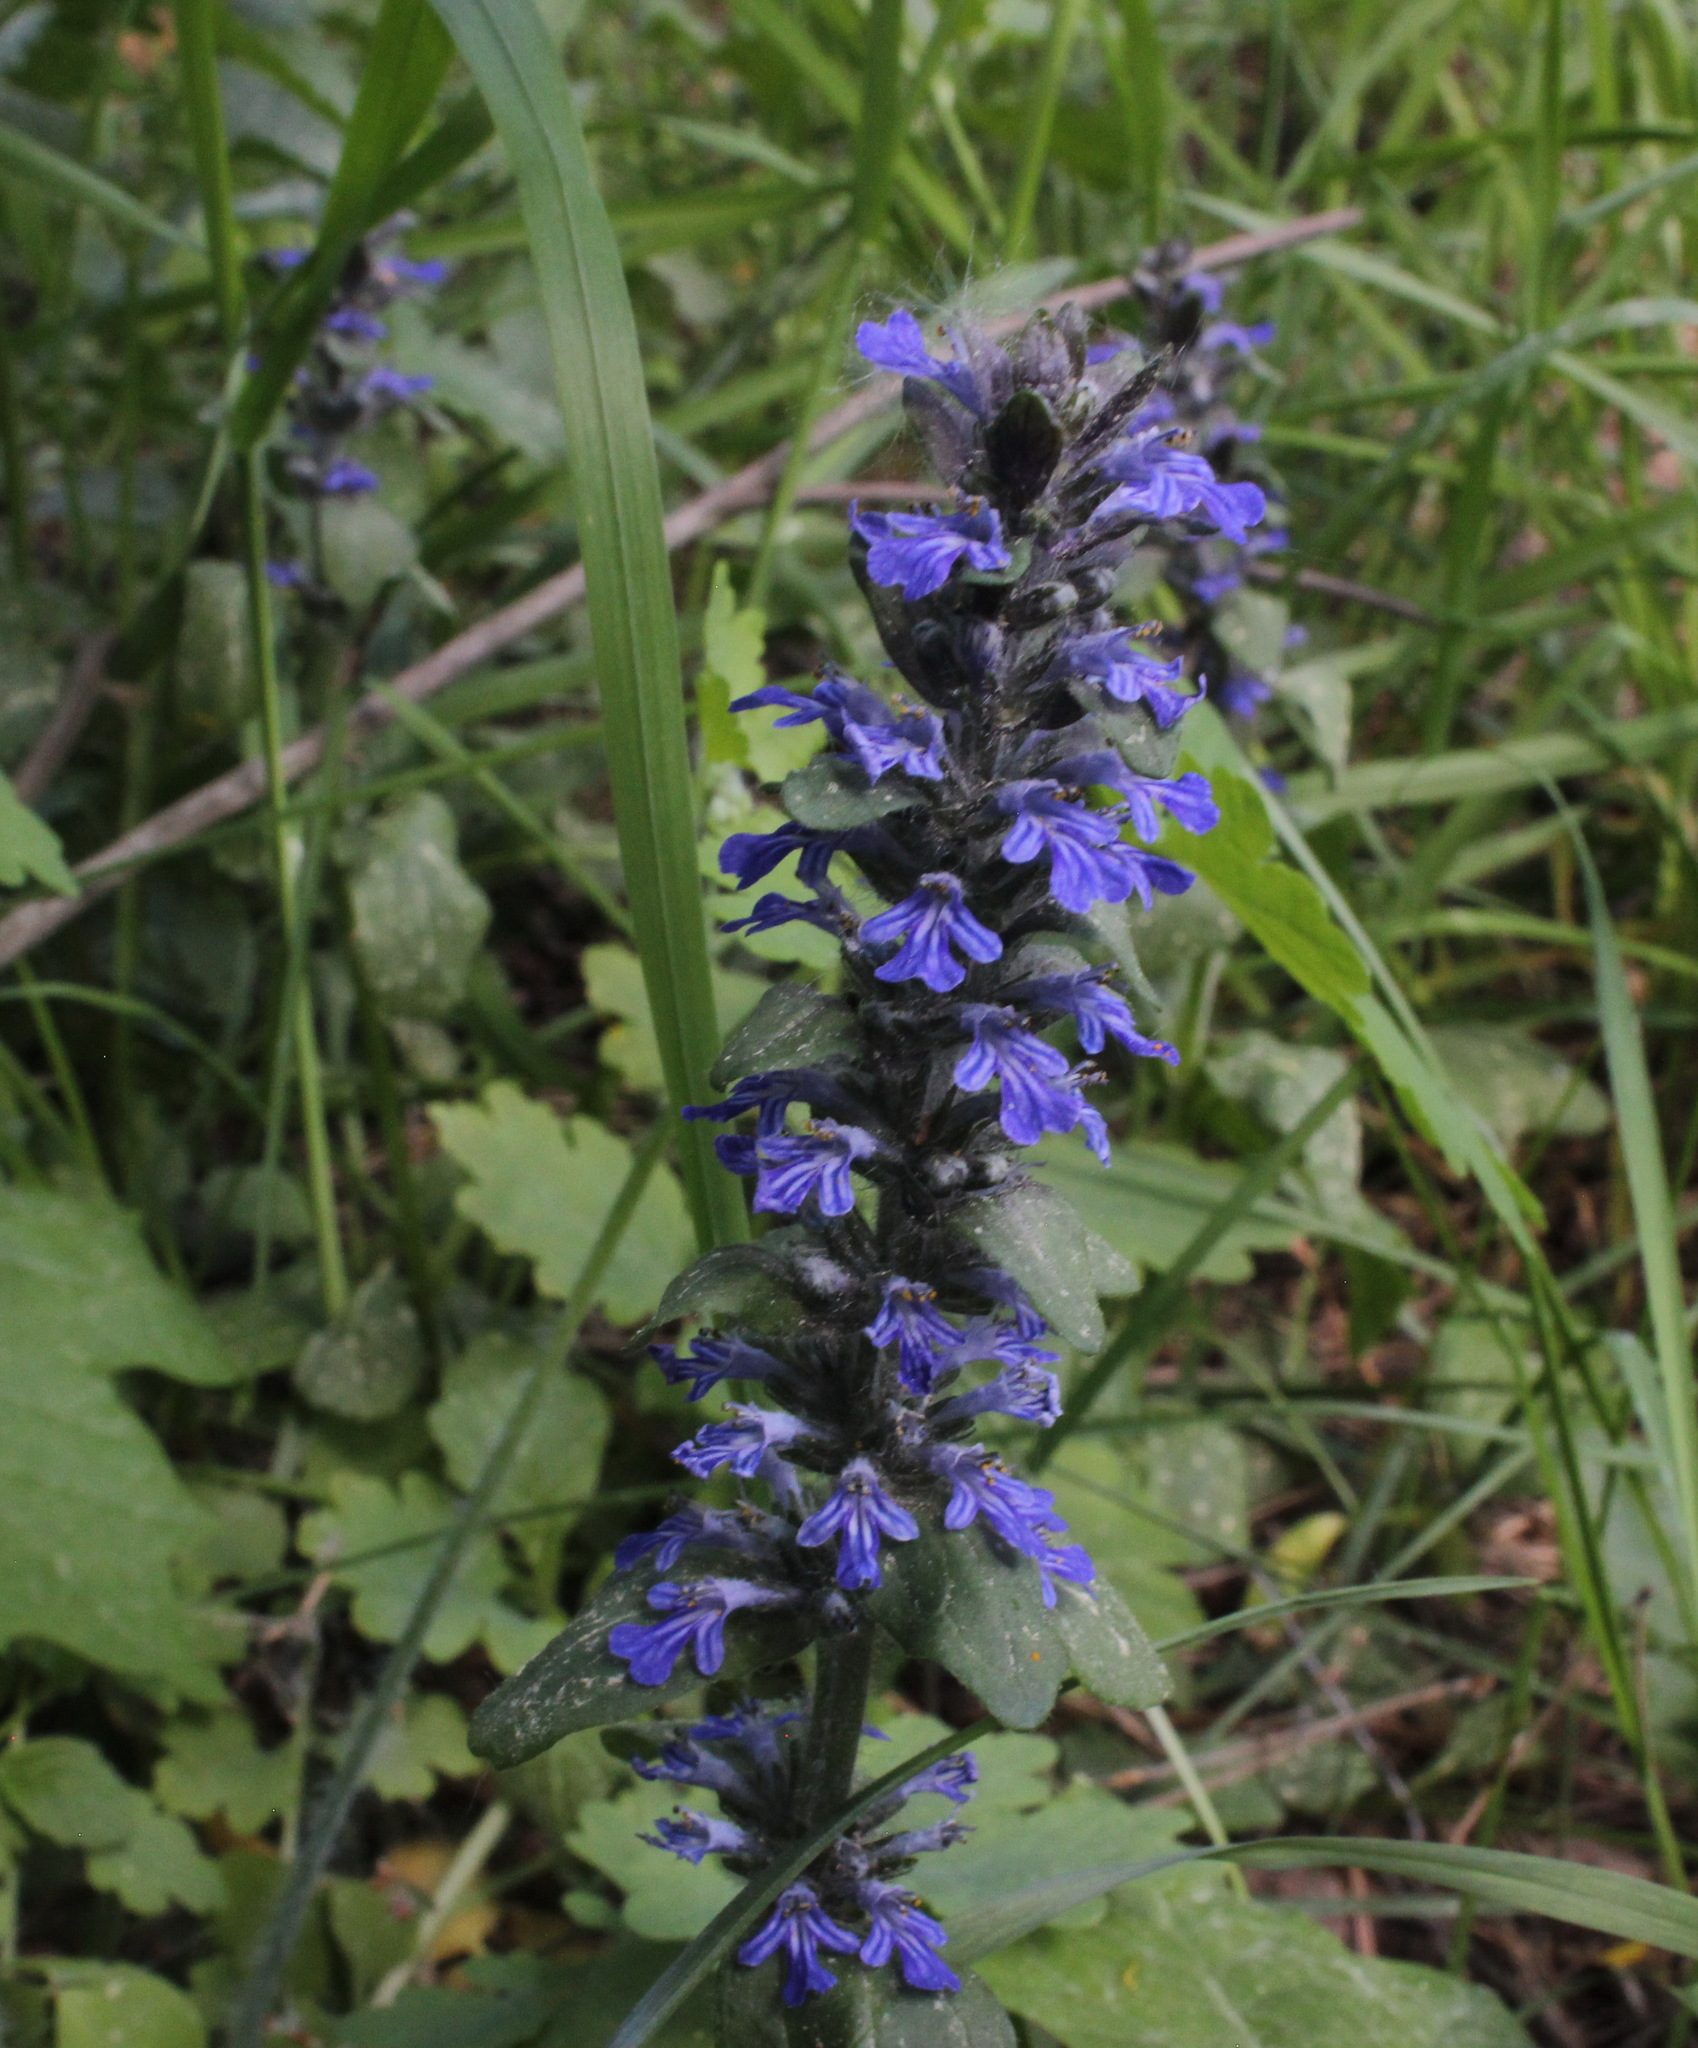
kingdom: Plantae
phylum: Tracheophyta
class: Magnoliopsida
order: Lamiales
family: Lamiaceae
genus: Ajuga
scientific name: Ajuga reptans
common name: Bugle
